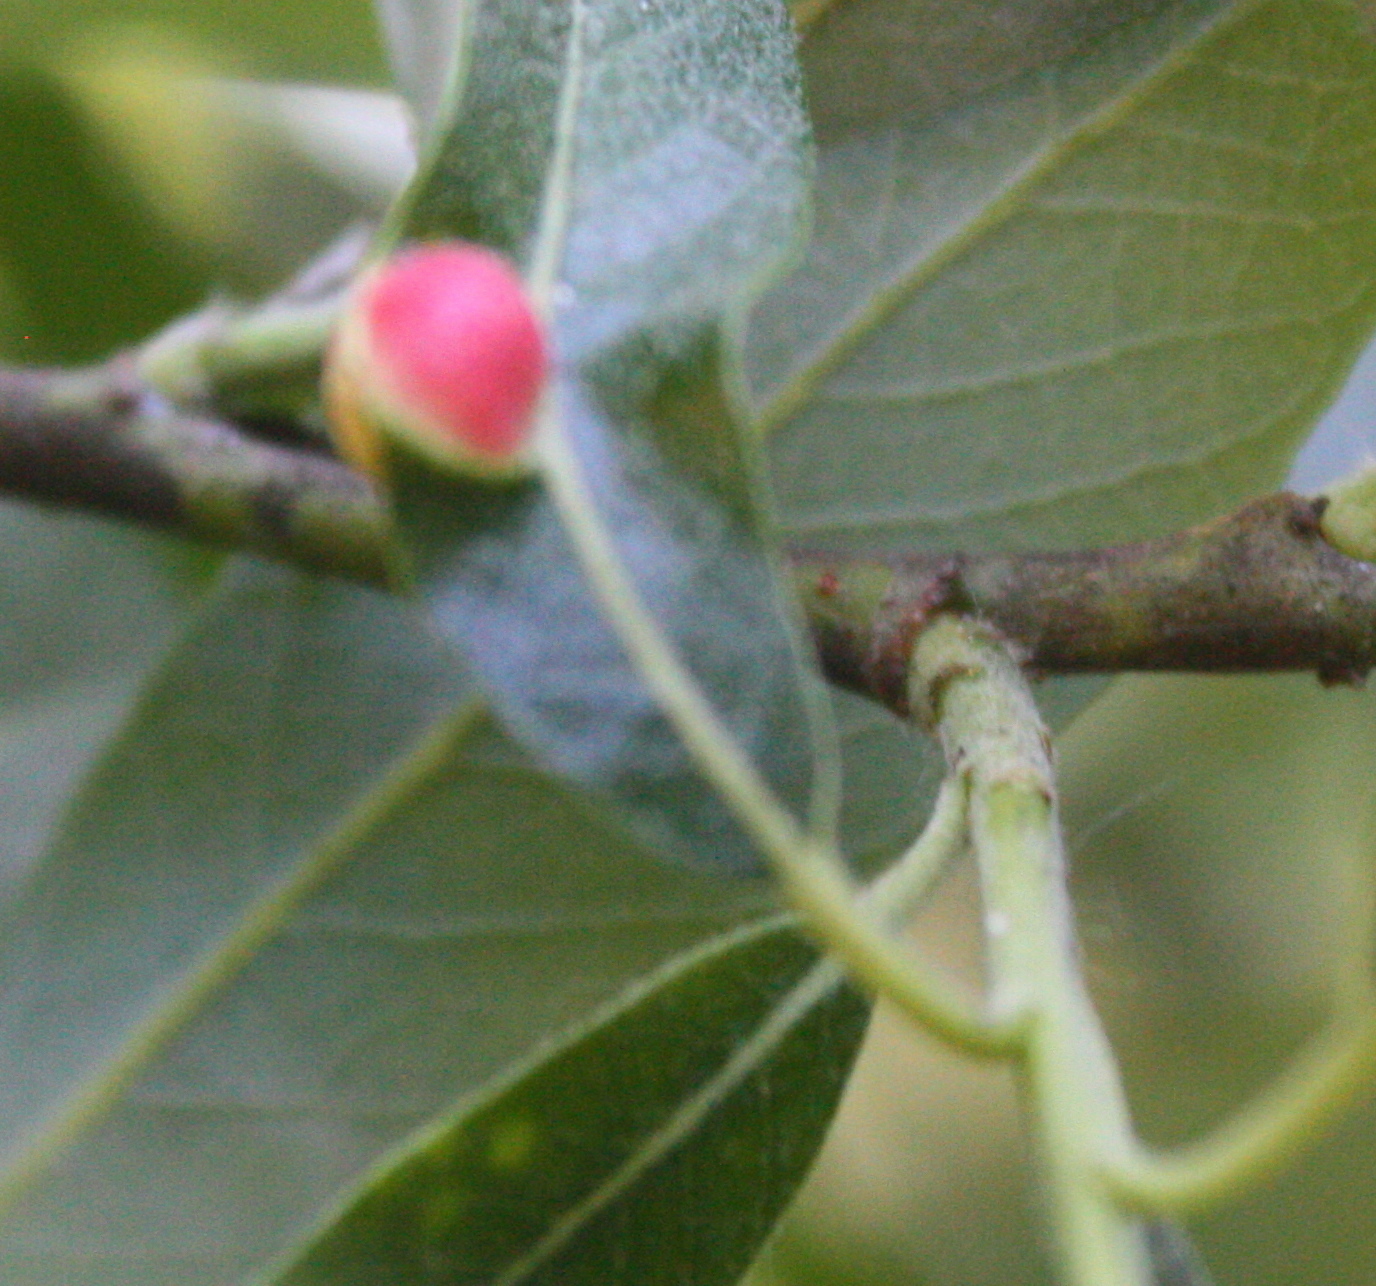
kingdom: Animalia
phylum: Arthropoda
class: Insecta
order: Hymenoptera
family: Tenthredinidae
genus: Euura
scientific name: Euura
